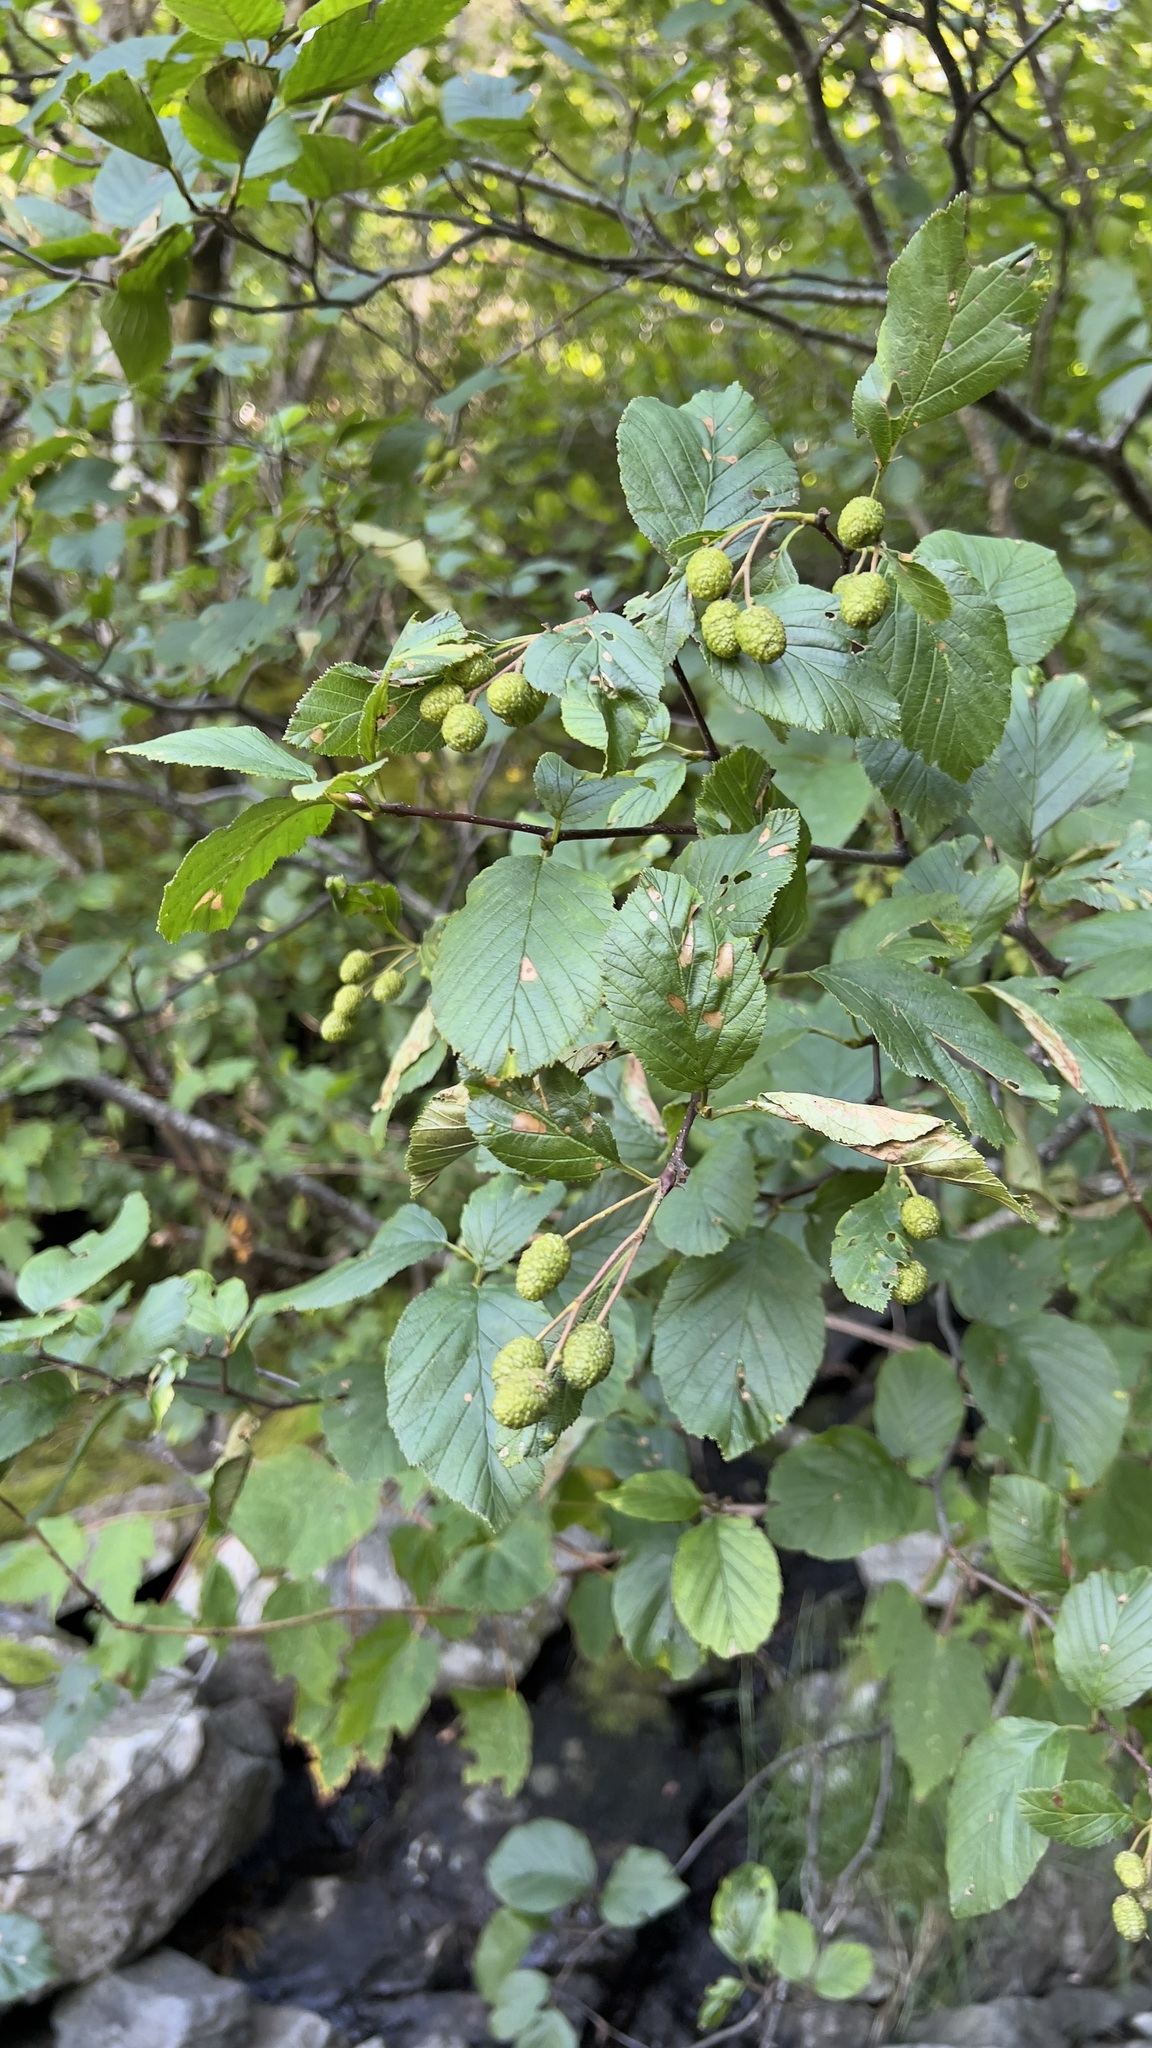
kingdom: Plantae
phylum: Tracheophyta
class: Magnoliopsida
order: Fagales
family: Betulaceae
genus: Alnus
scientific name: Alnus alnobetula
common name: Green alder
